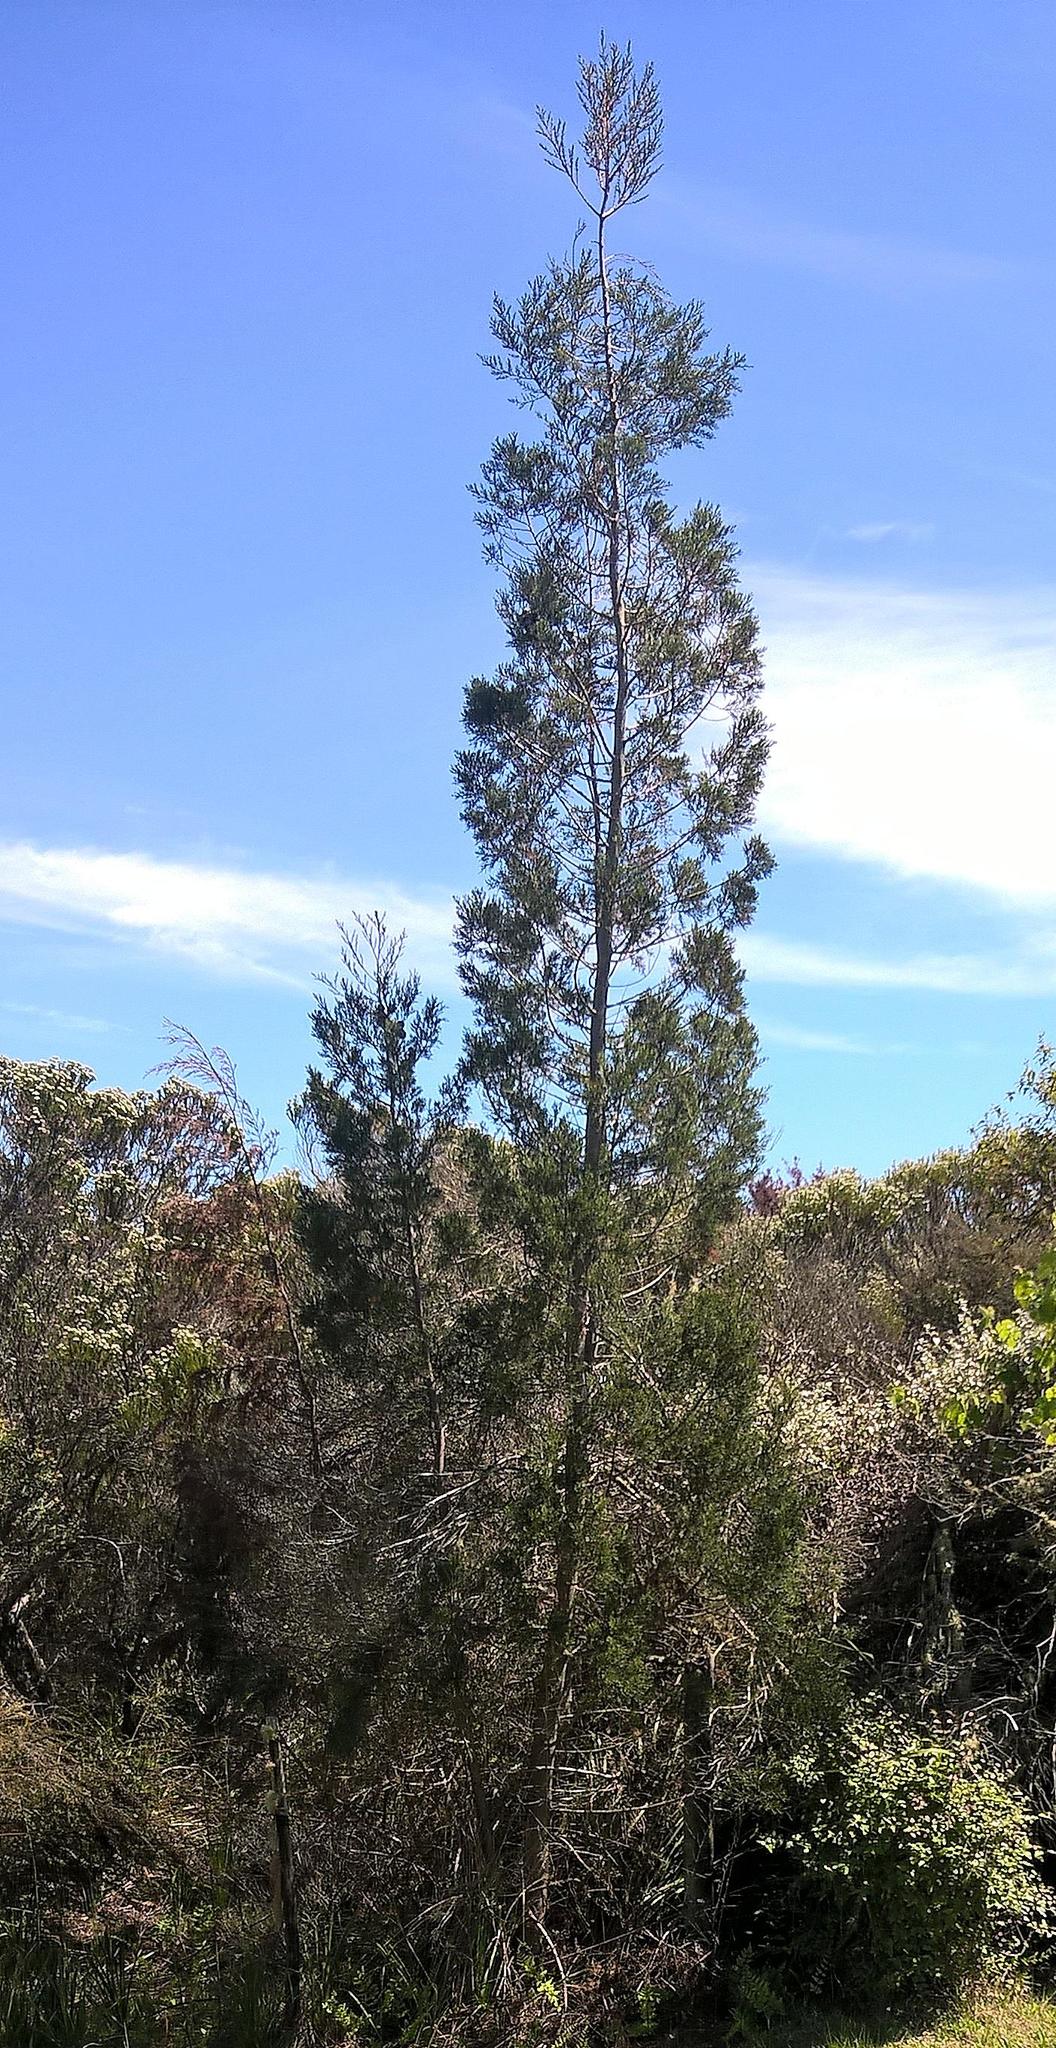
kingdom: Plantae
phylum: Tracheophyta
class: Pinopsida
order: Pinales
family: Cupressaceae
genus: Widdringtonia
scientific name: Widdringtonia nodiflora
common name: Cape cypress
